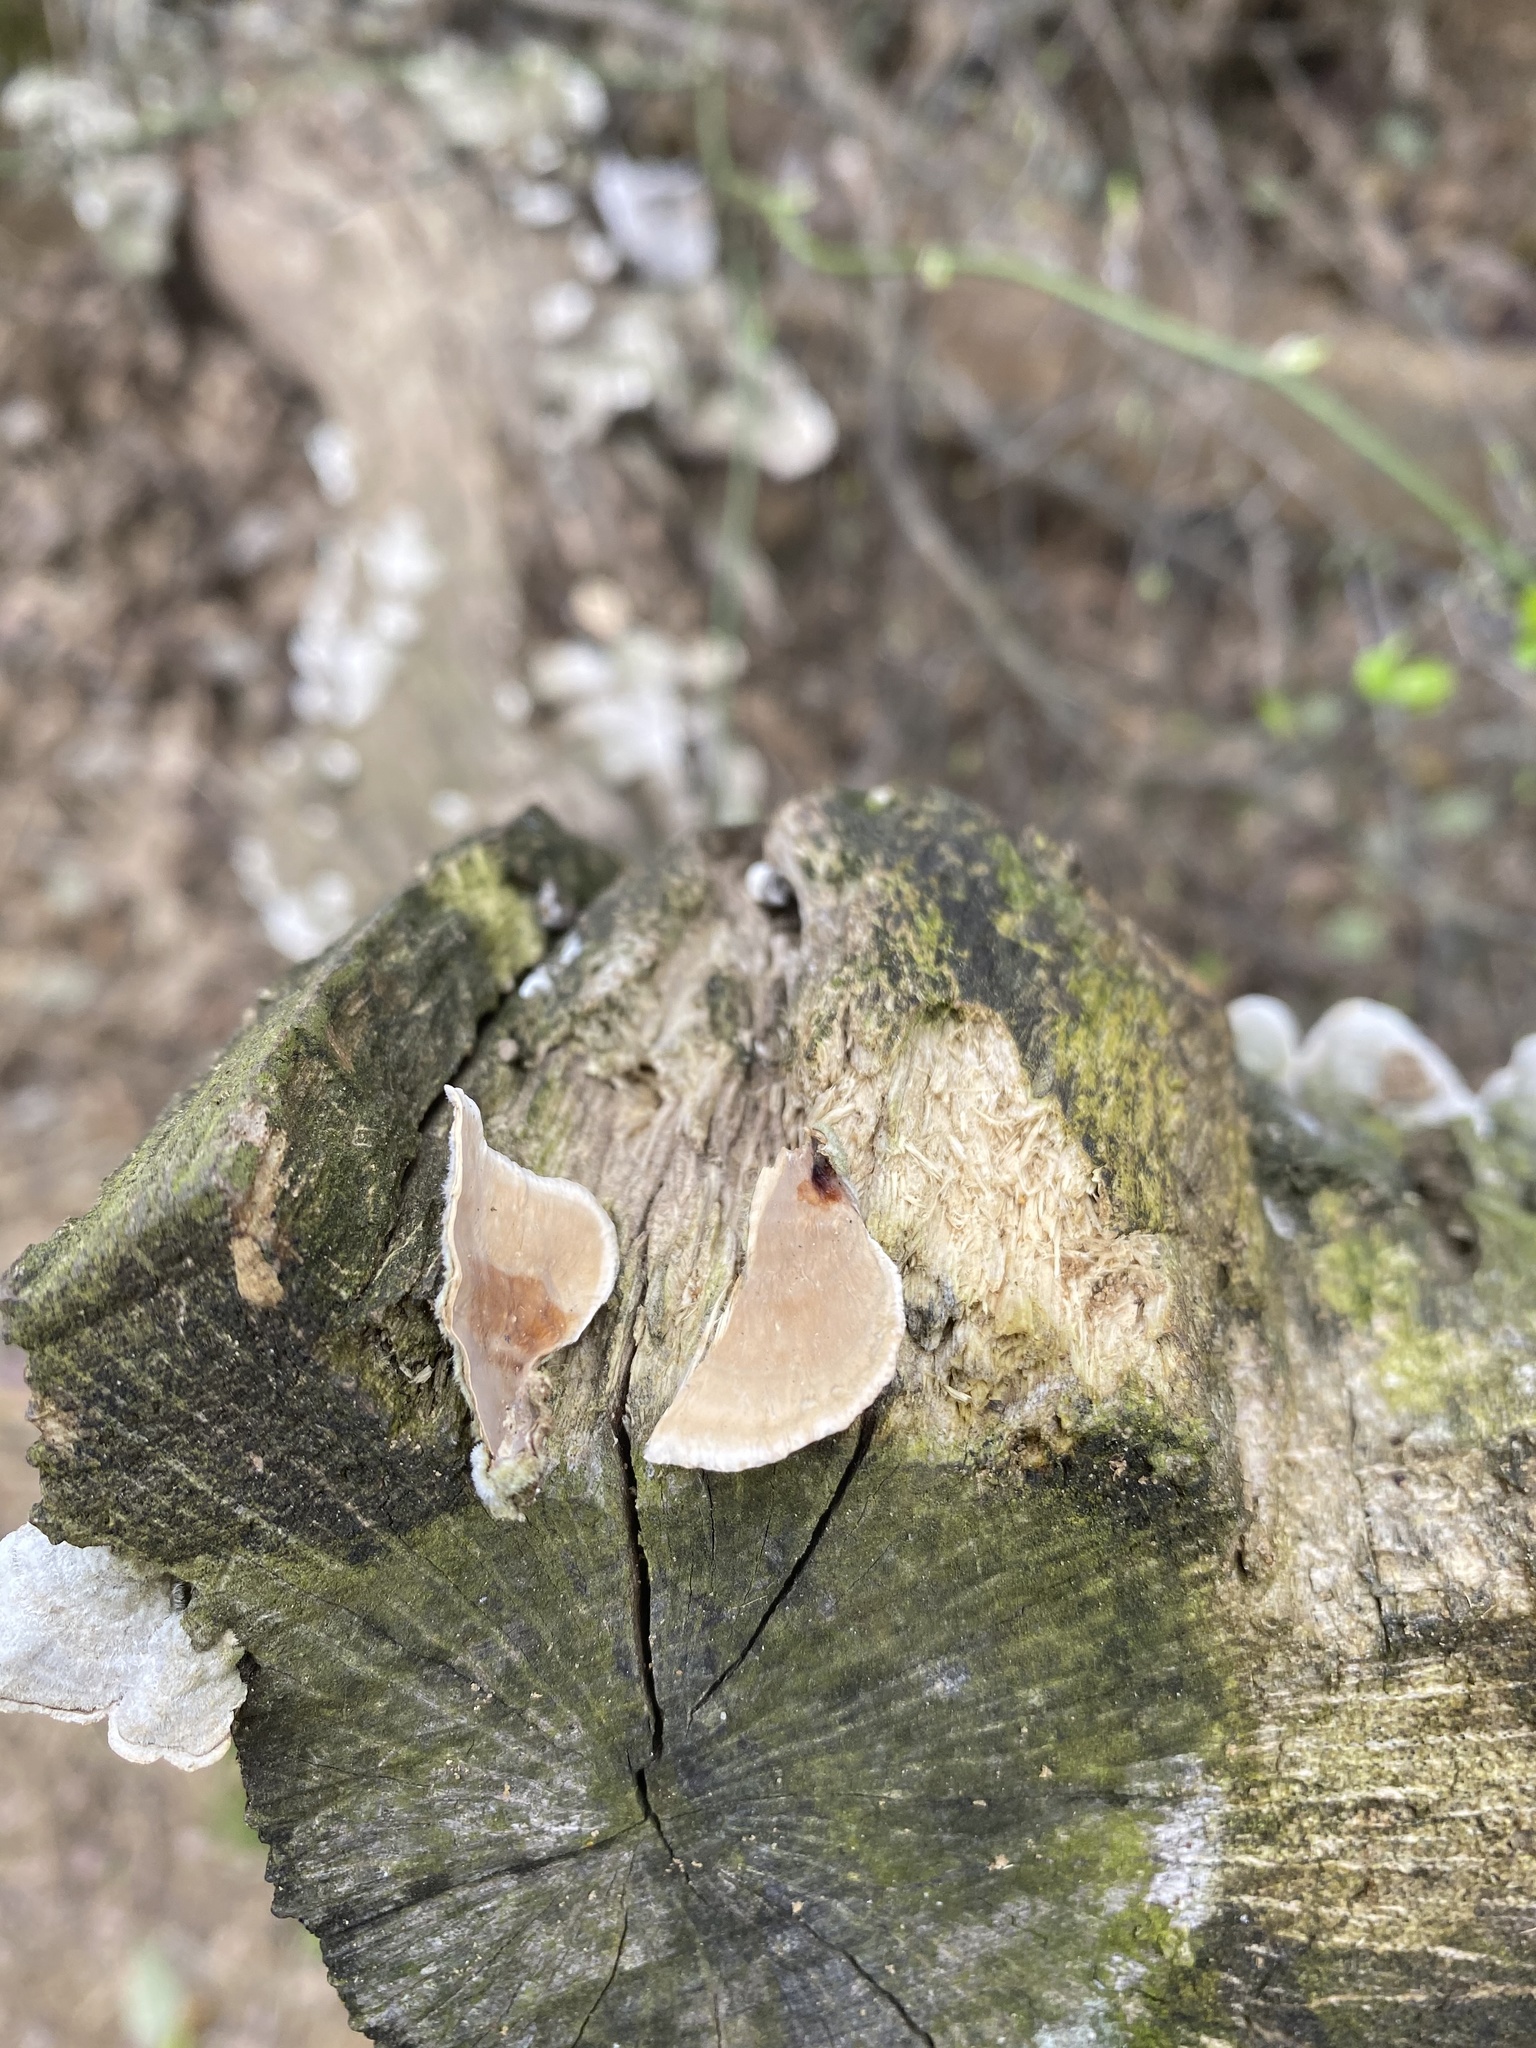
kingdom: Fungi
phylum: Basidiomycota
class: Agaricomycetes
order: Russulales
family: Stereaceae
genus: Stereum
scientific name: Stereum ostrea
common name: False turkeytail
